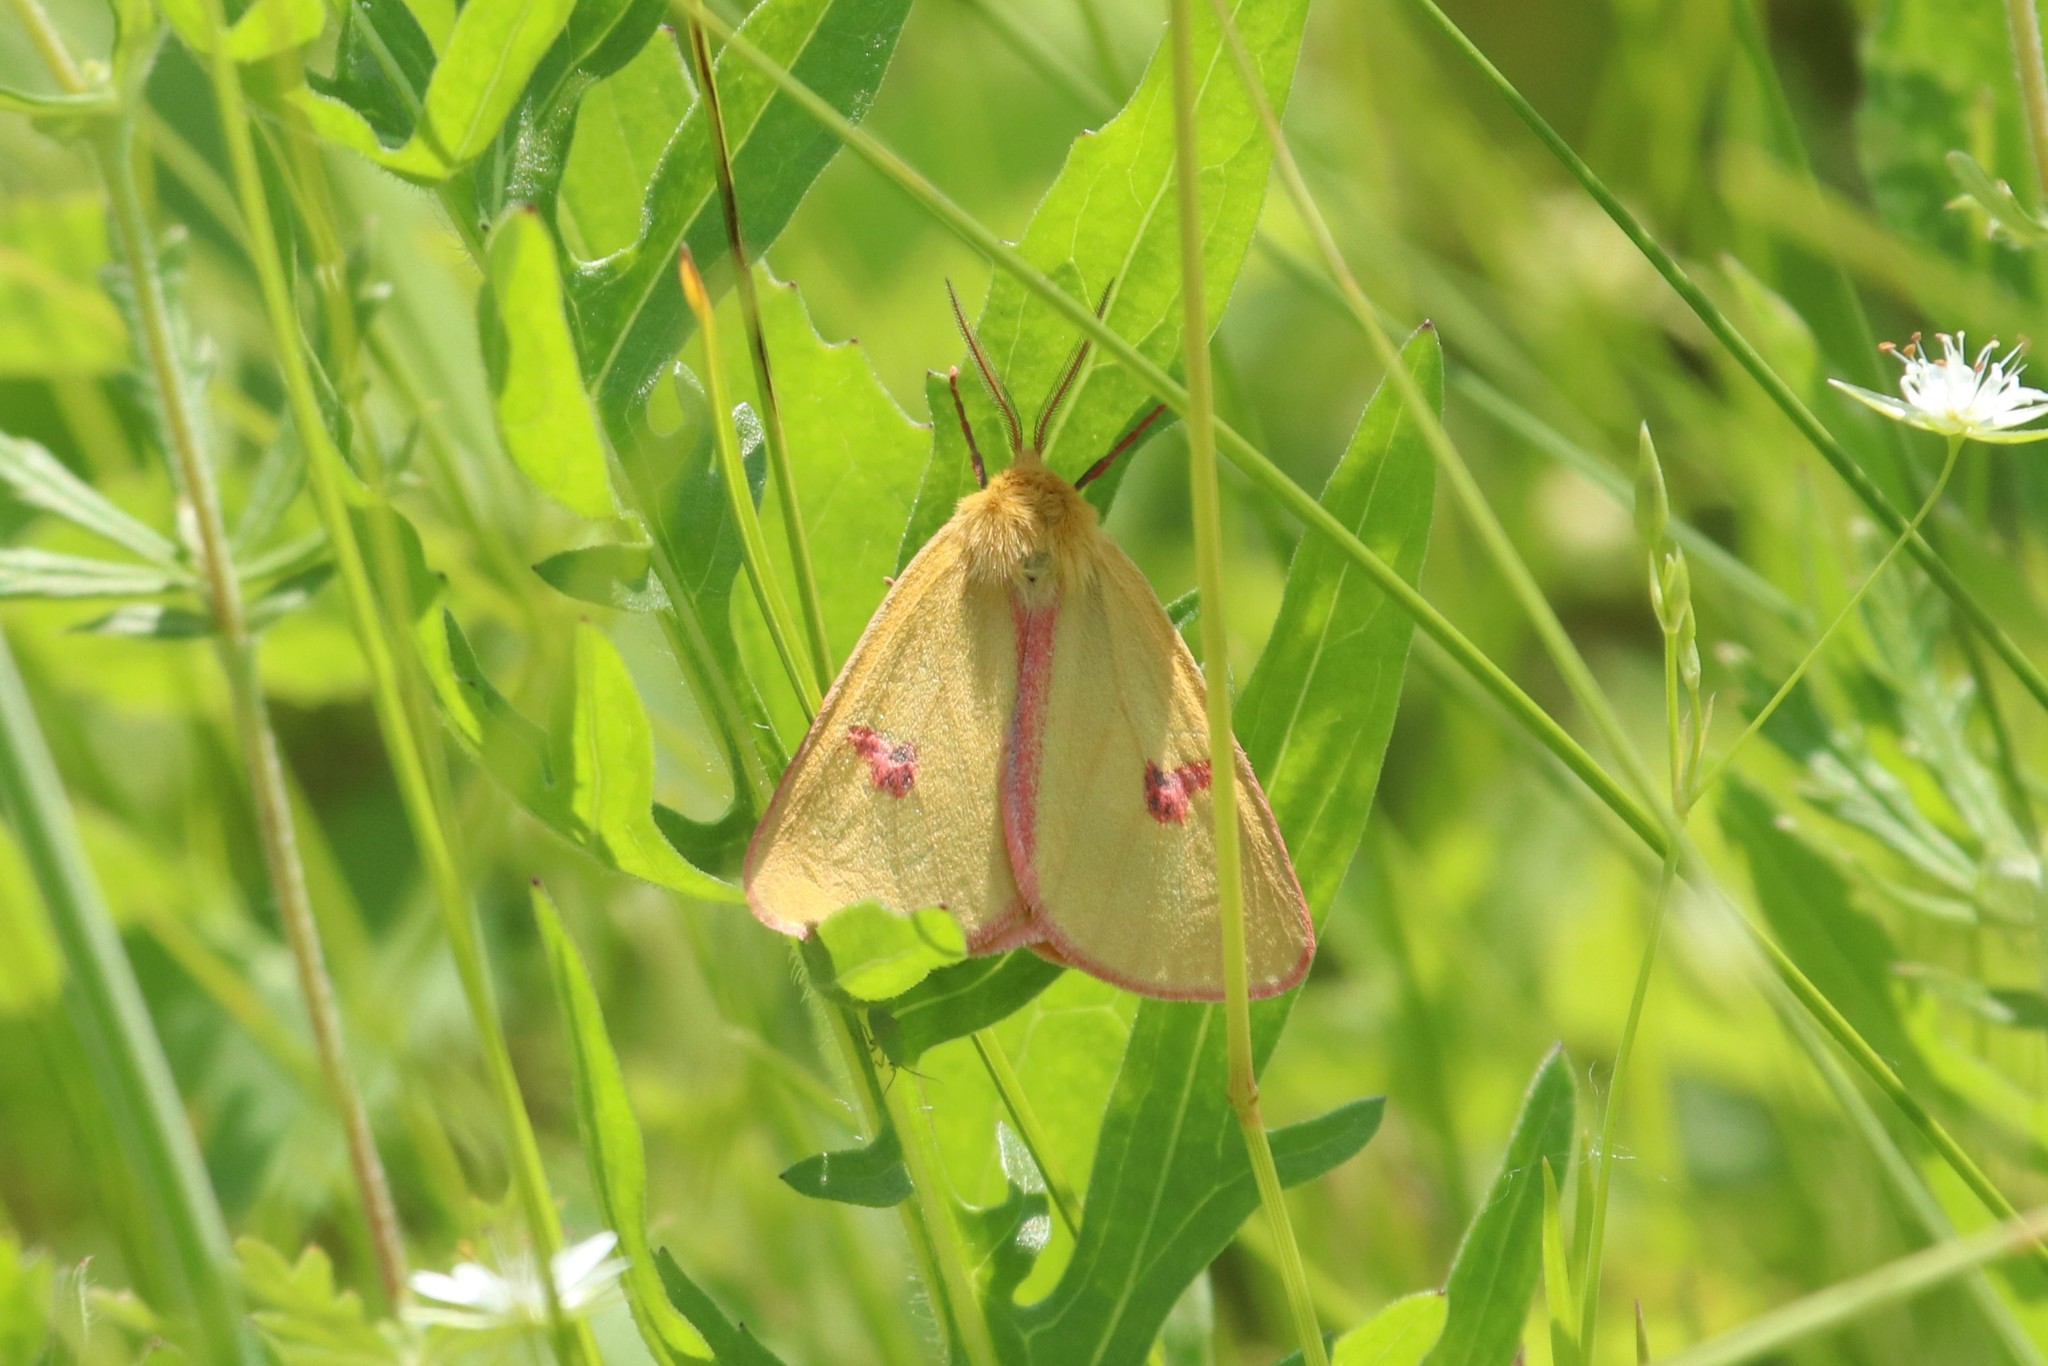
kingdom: Animalia
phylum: Arthropoda
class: Insecta
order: Lepidoptera
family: Erebidae
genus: Diacrisia
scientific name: Diacrisia sannio
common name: Clouded buff
